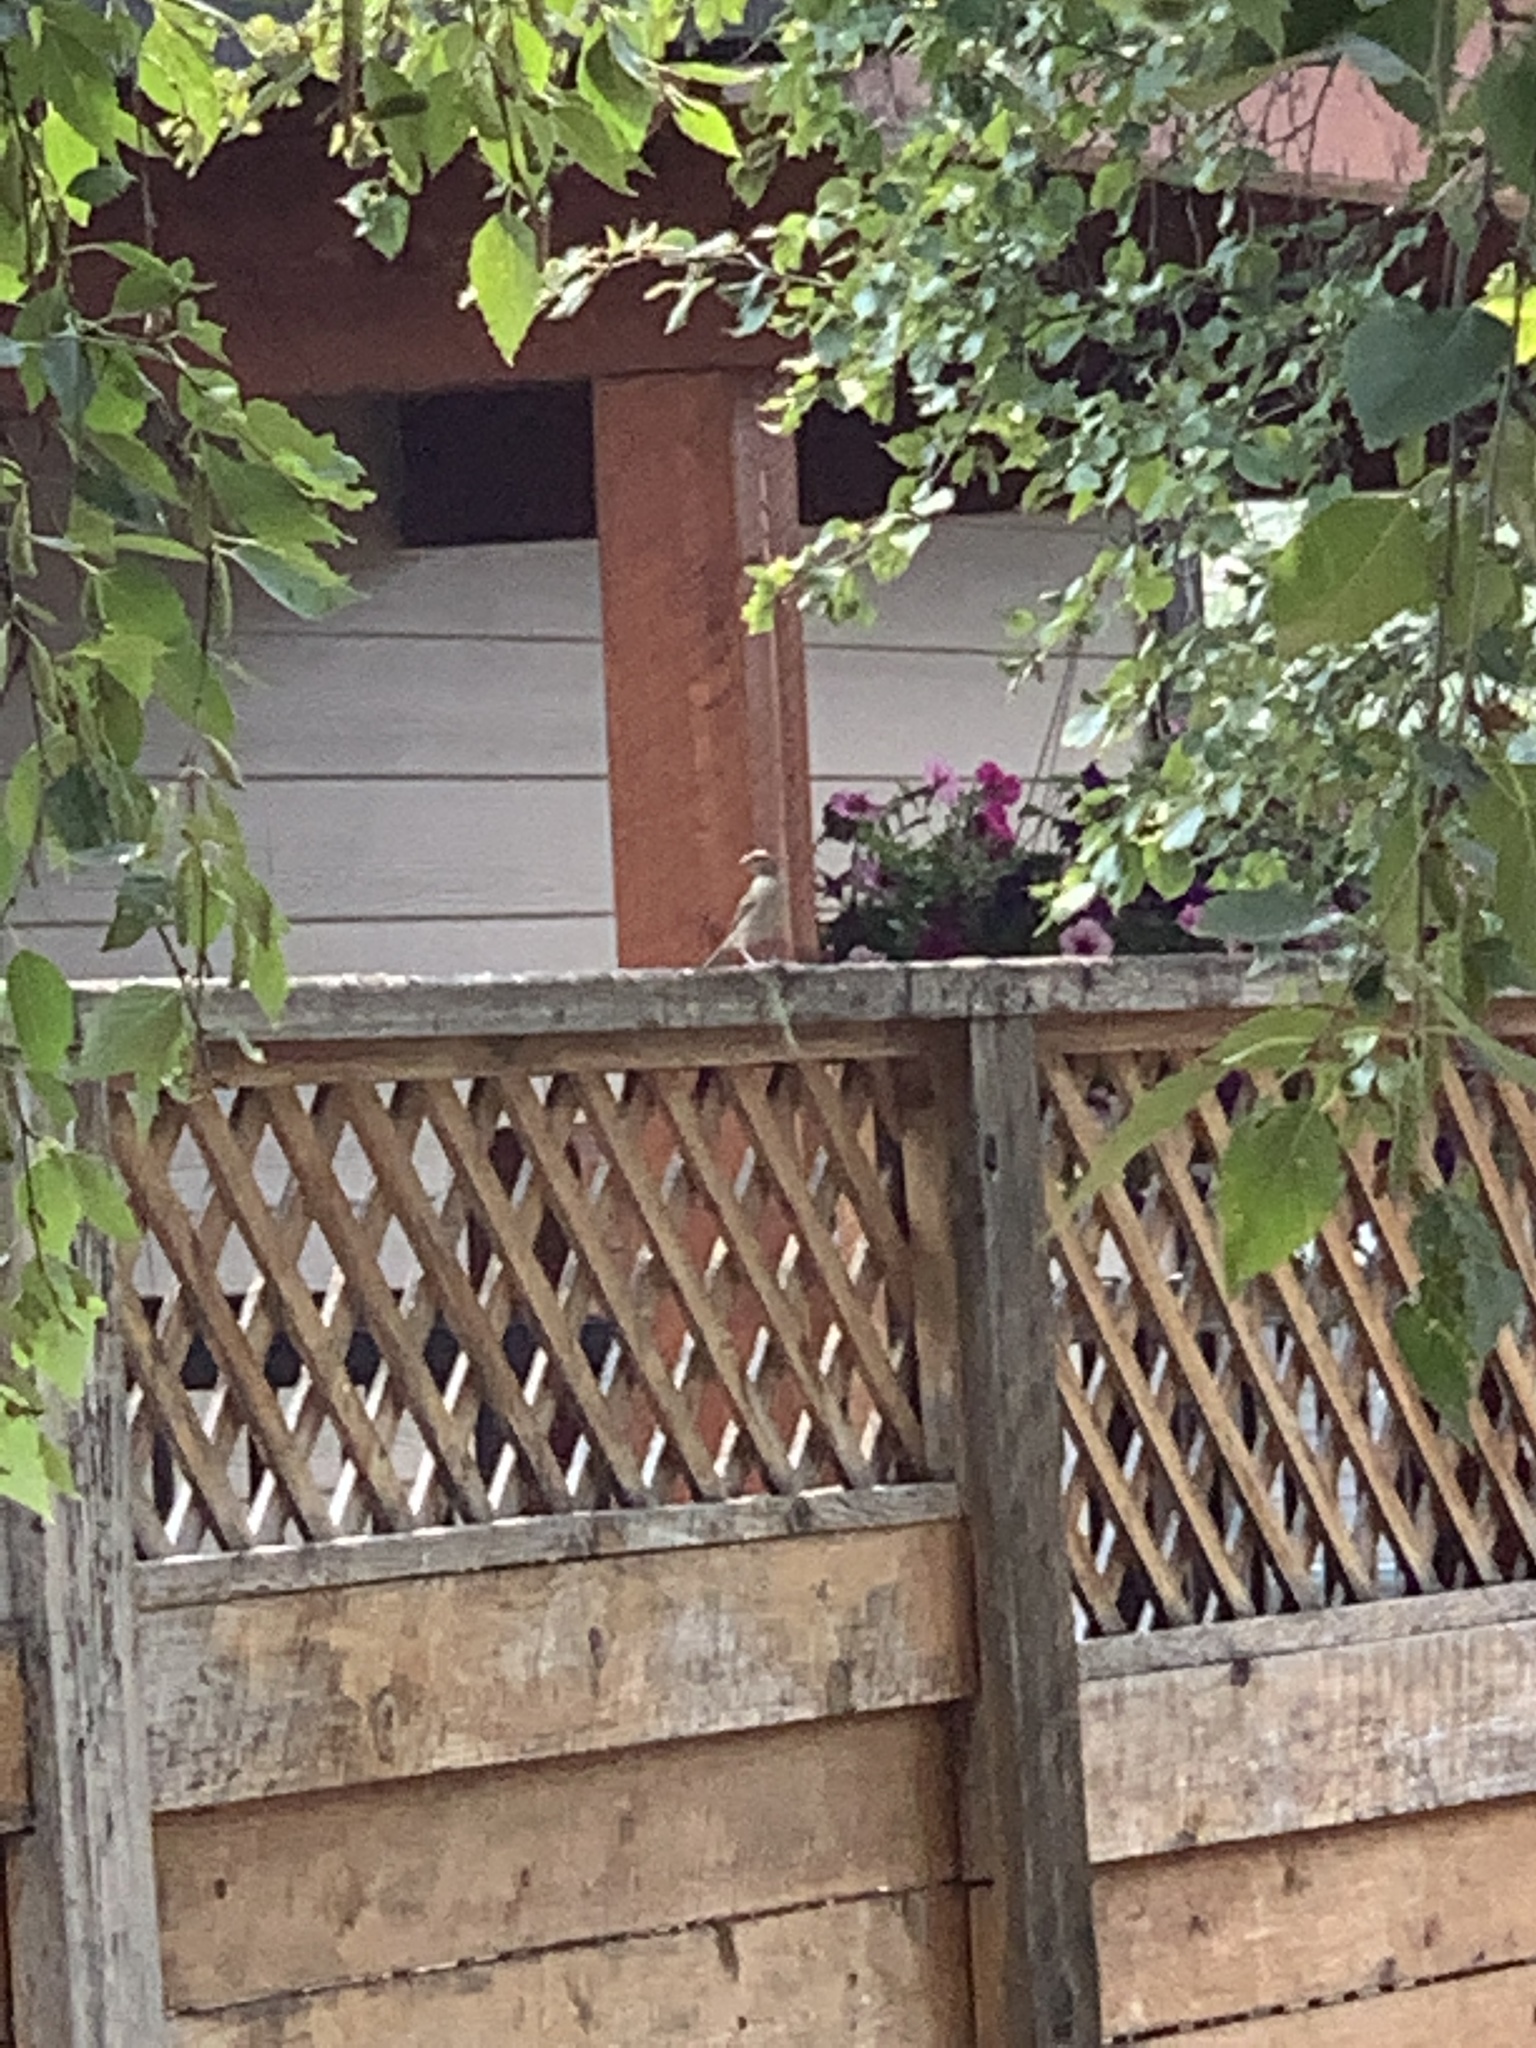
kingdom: Animalia
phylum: Chordata
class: Aves
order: Passeriformes
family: Passeridae
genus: Passer
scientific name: Passer domesticus
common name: House sparrow
